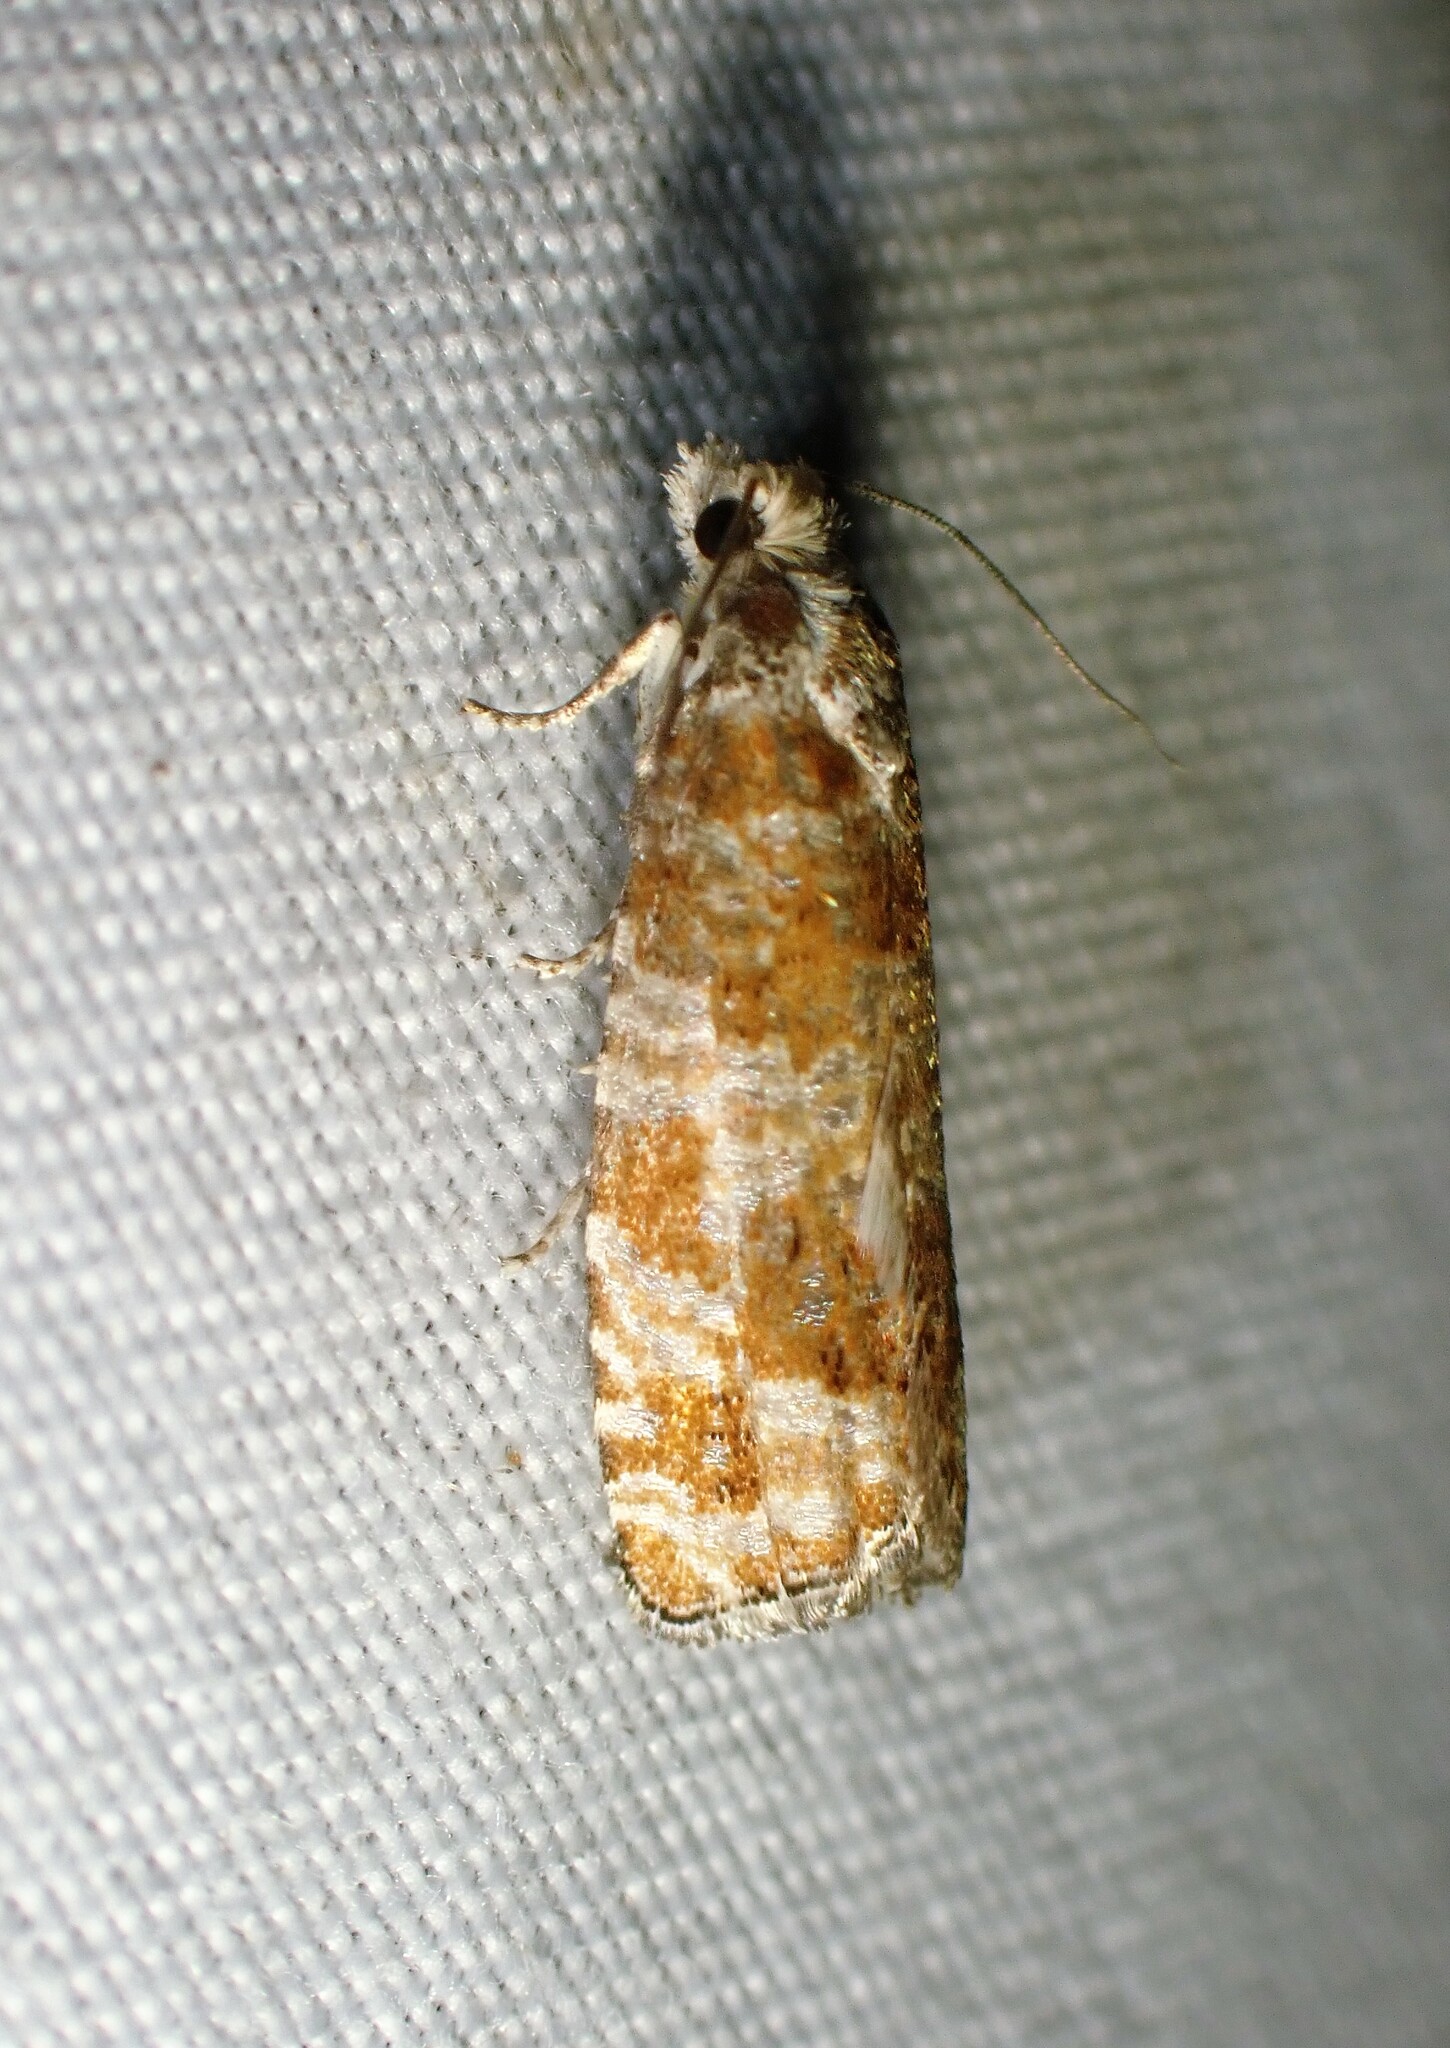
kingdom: Animalia
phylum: Arthropoda
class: Insecta
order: Lepidoptera
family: Tortricidae
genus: Retinia
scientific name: Retinia albicapitana
